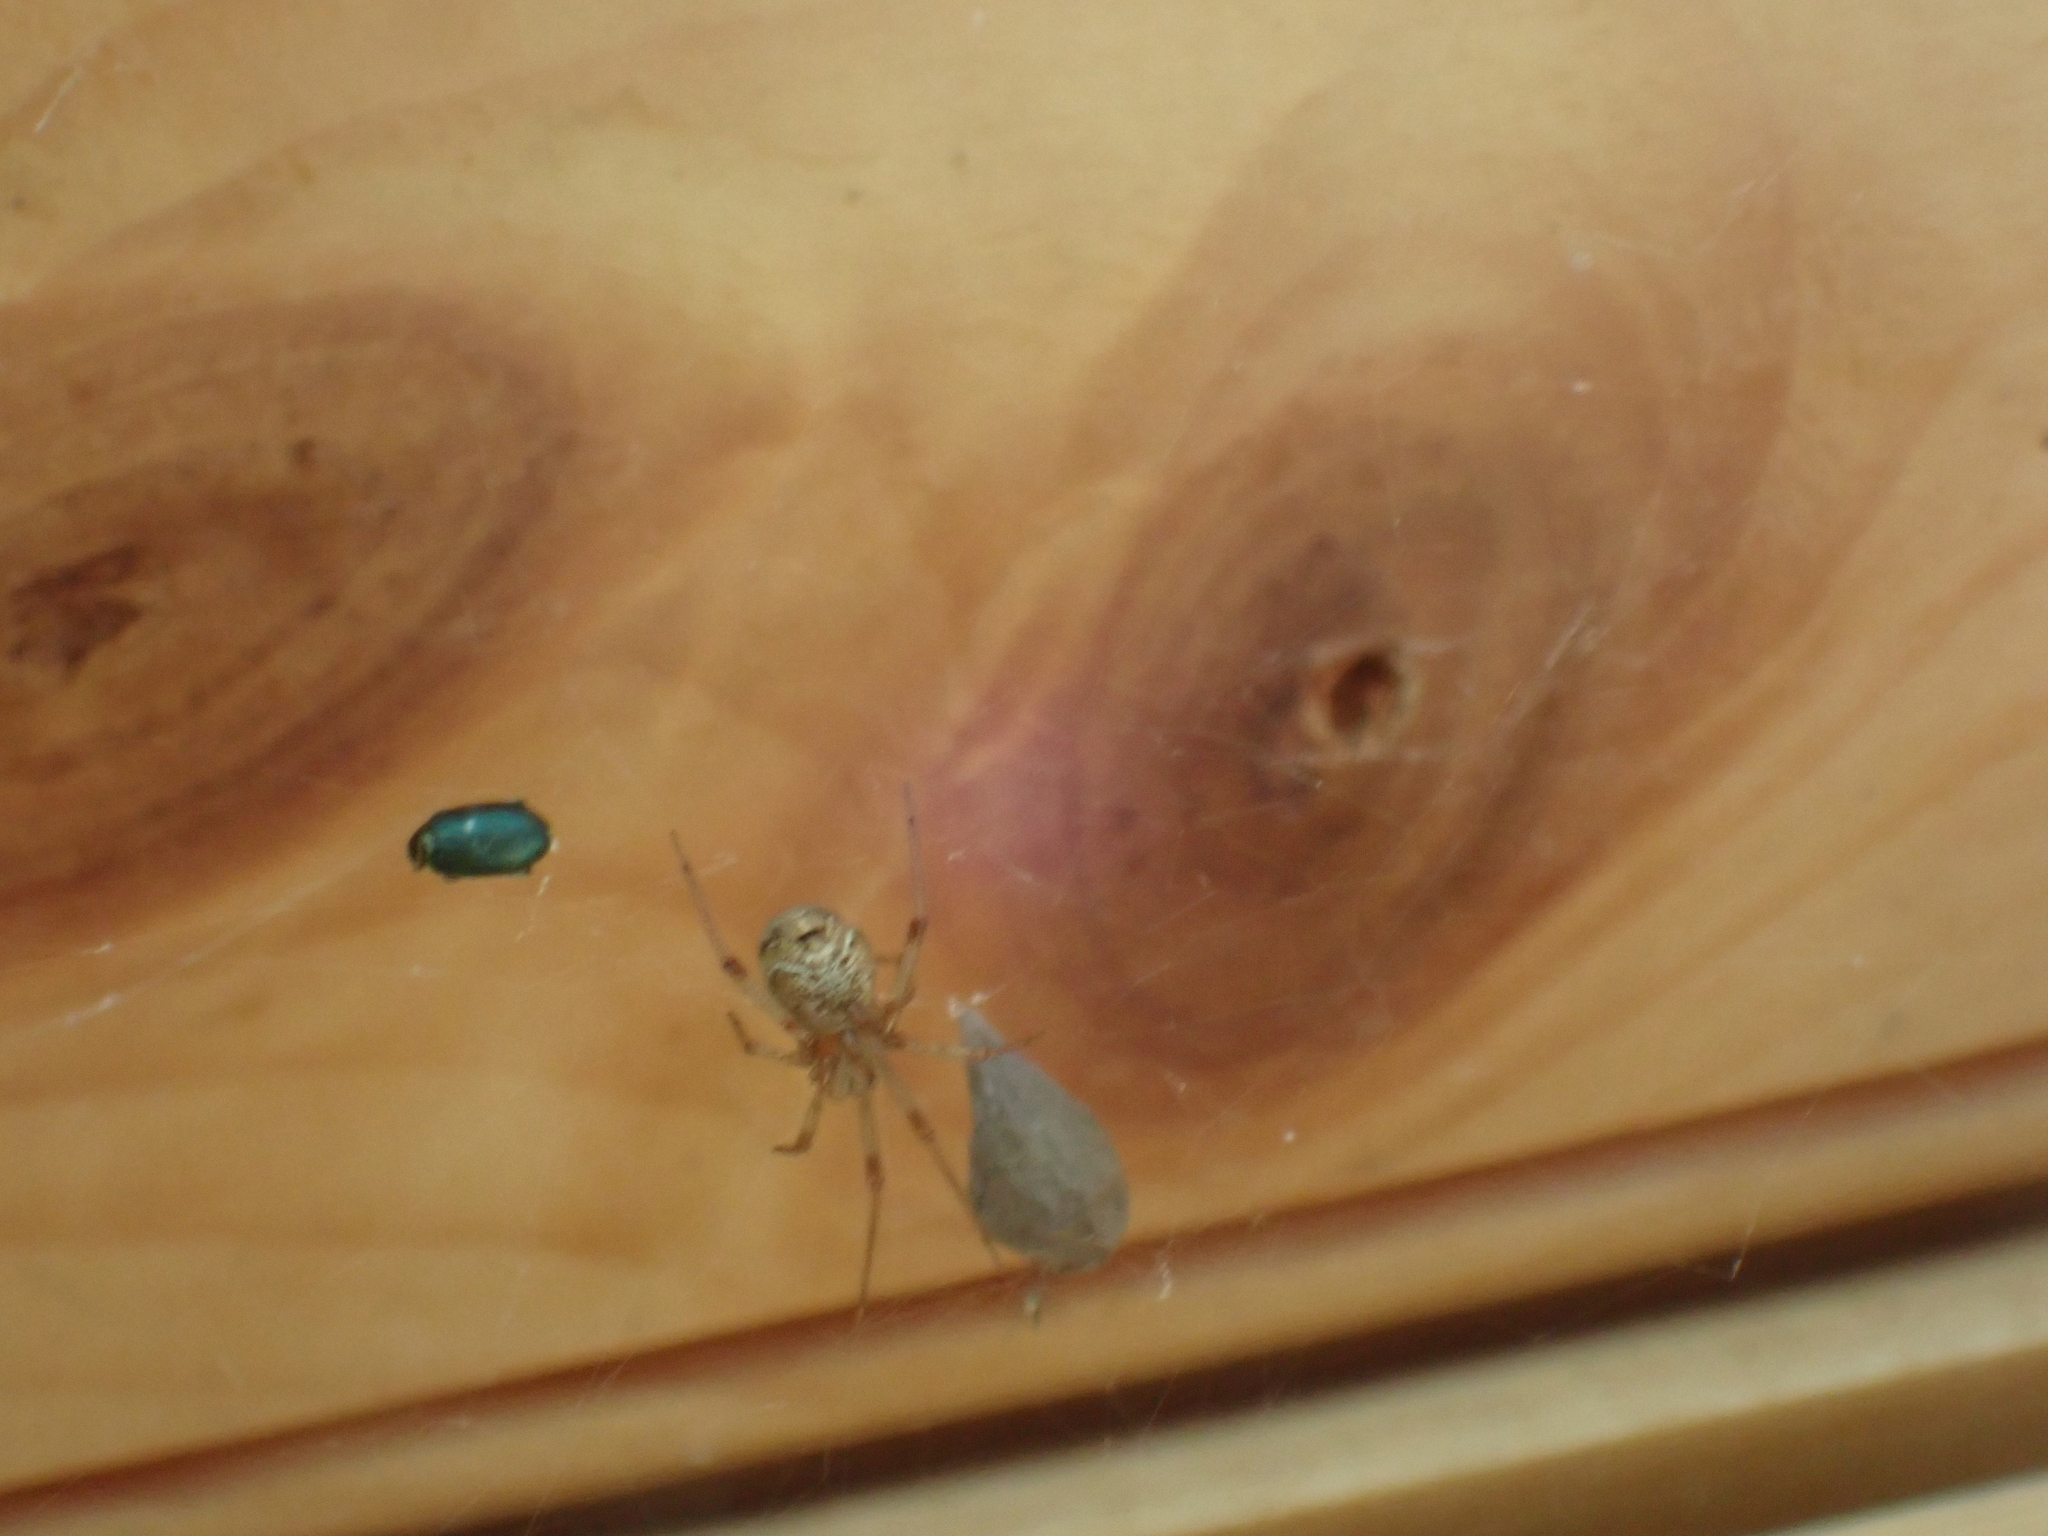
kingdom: Animalia
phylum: Arthropoda
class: Arachnida
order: Araneae
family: Theridiidae
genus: Parasteatoda
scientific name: Parasteatoda tepidariorum
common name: Common house spider
